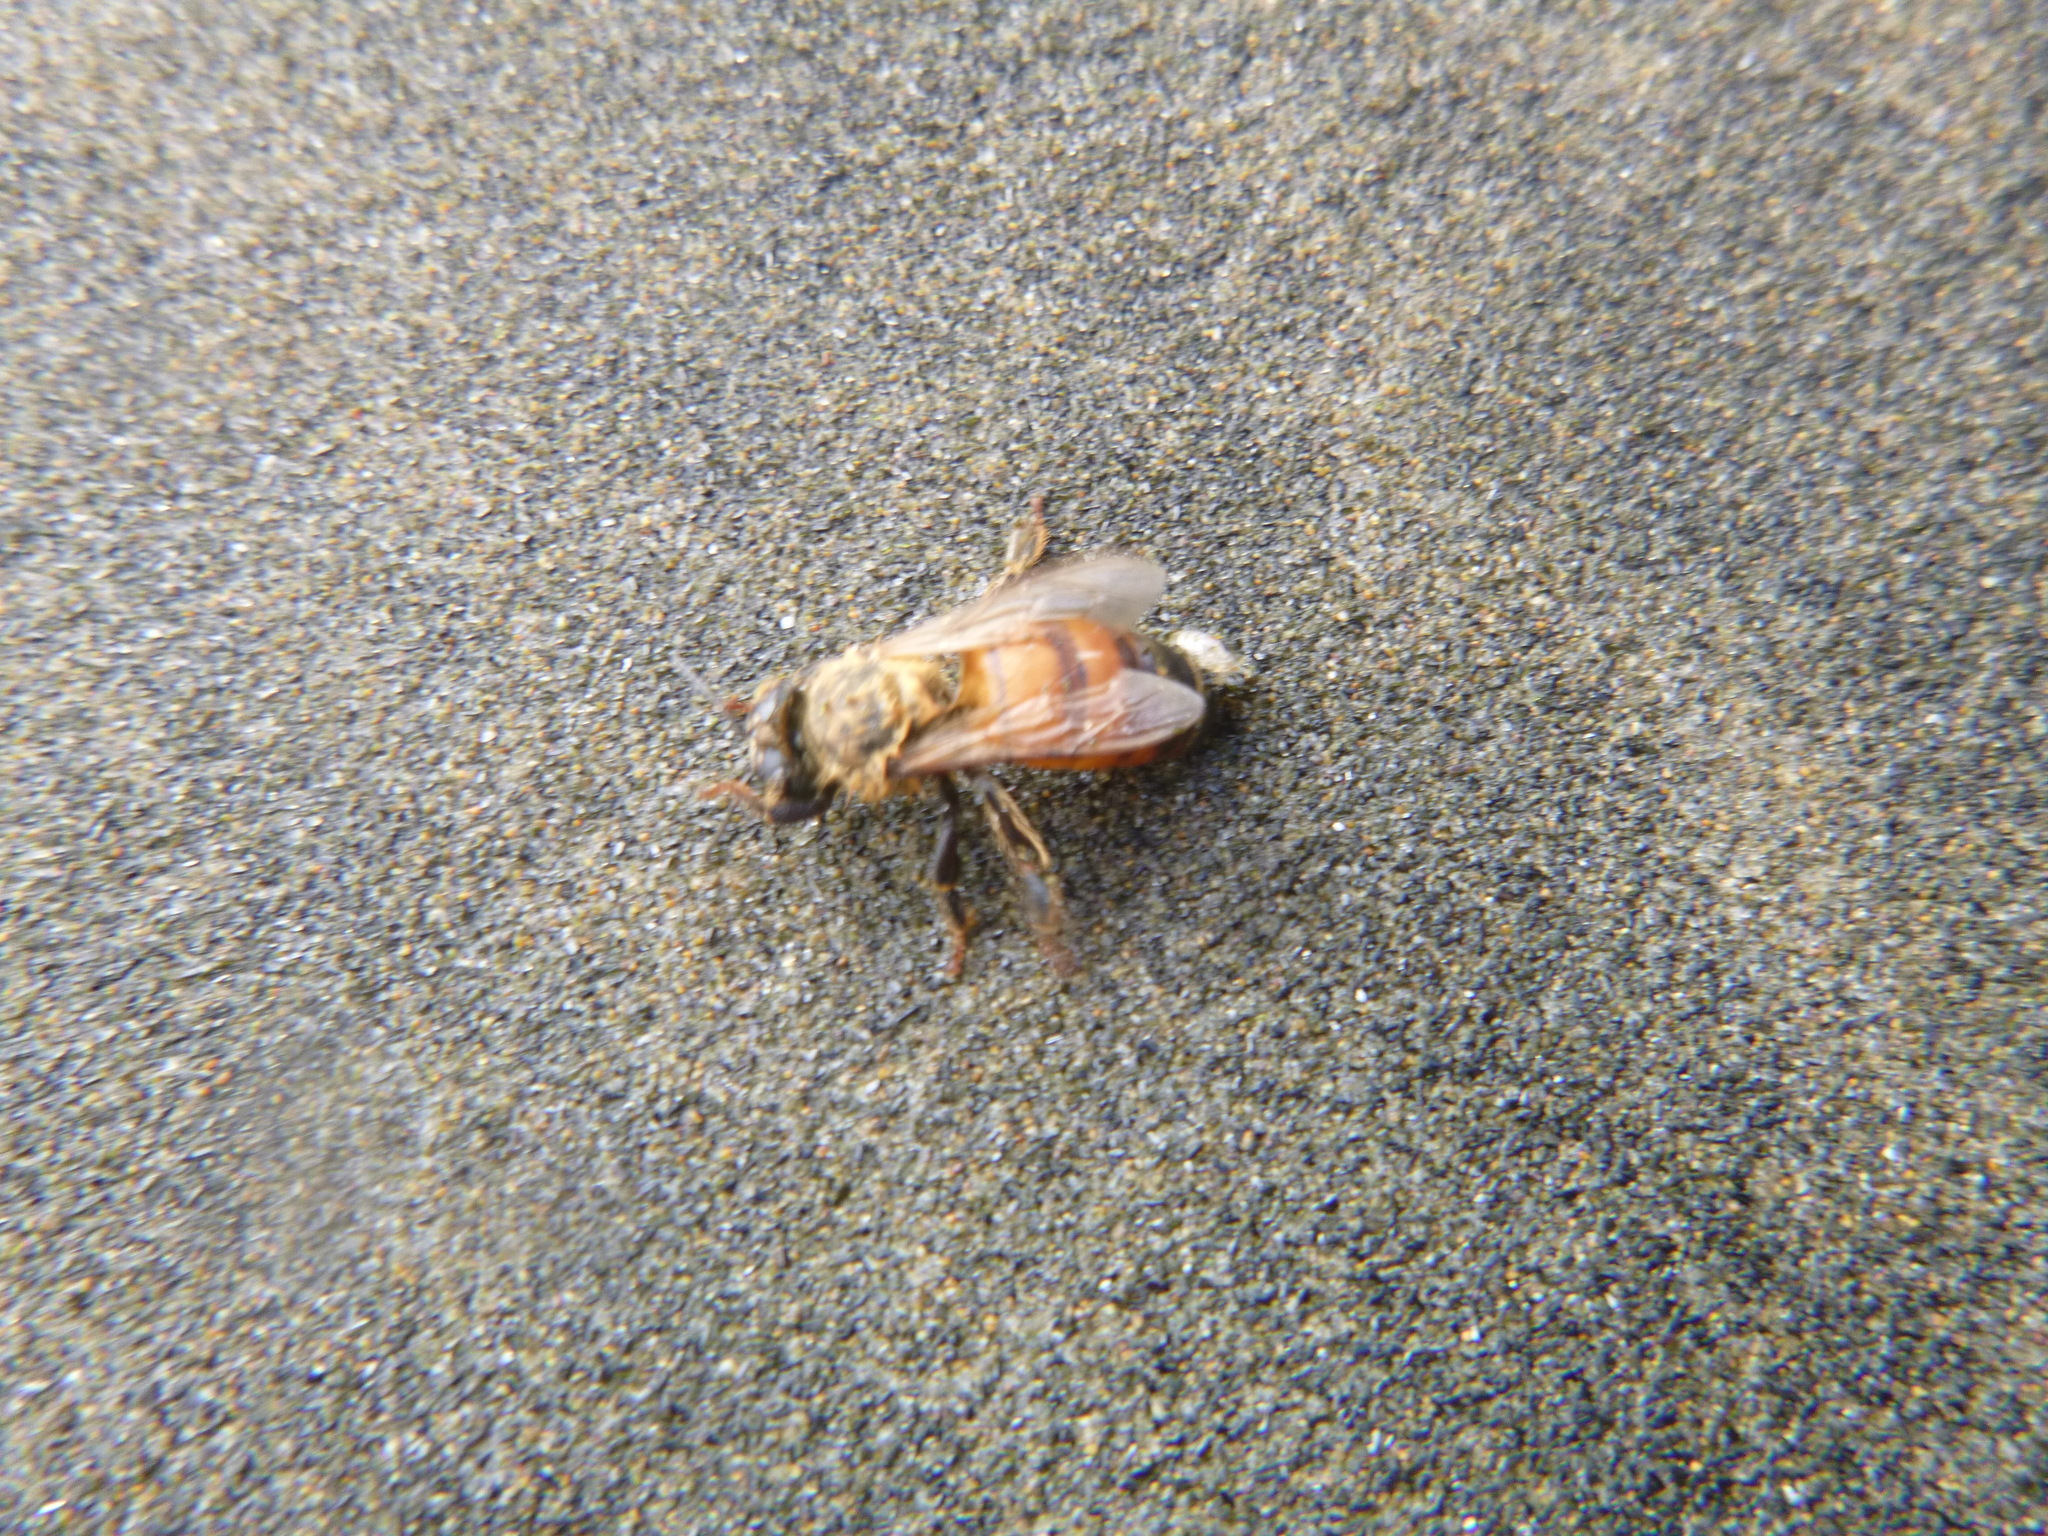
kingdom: Animalia
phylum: Arthropoda
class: Insecta
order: Hymenoptera
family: Apidae
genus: Apis
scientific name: Apis mellifera
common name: Honey bee
